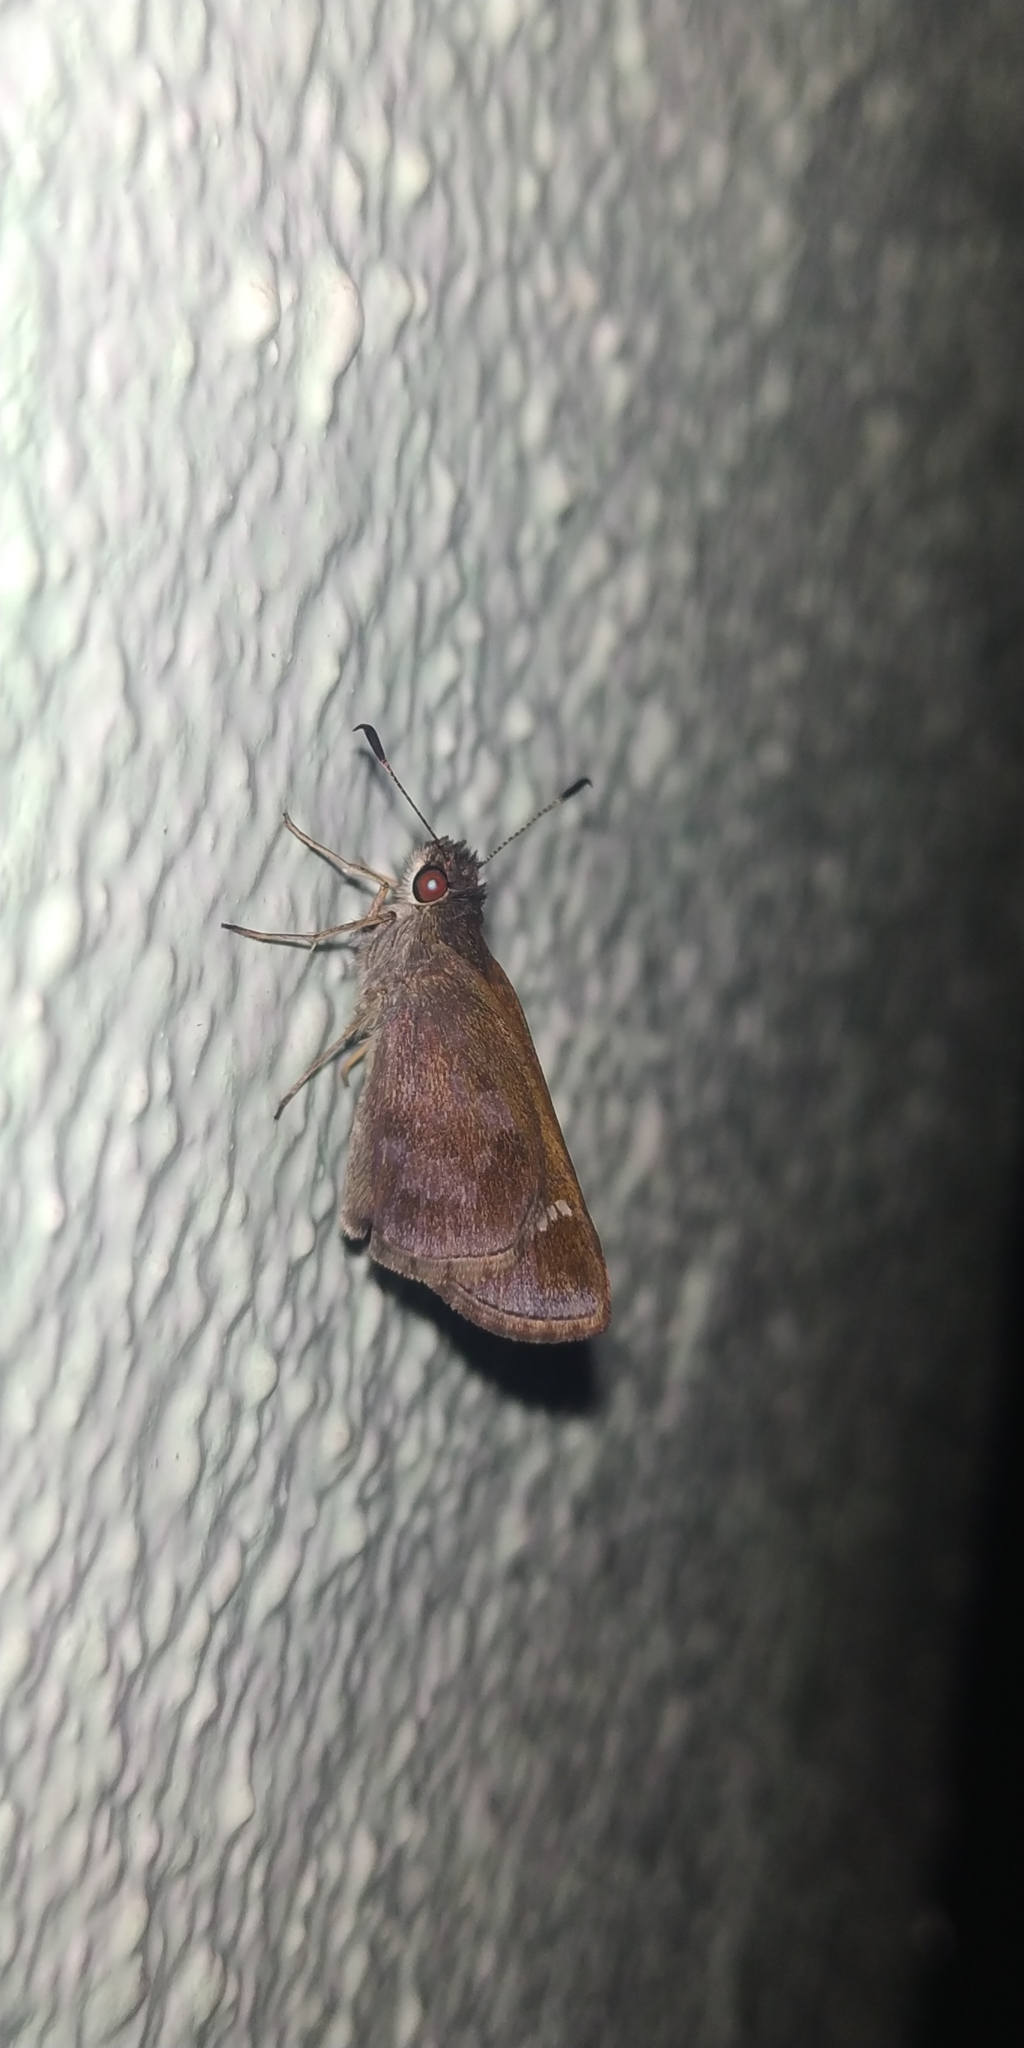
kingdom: Animalia
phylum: Arthropoda
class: Insecta
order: Lepidoptera
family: Hesperiidae
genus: Cymaenes
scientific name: Cymaenes
